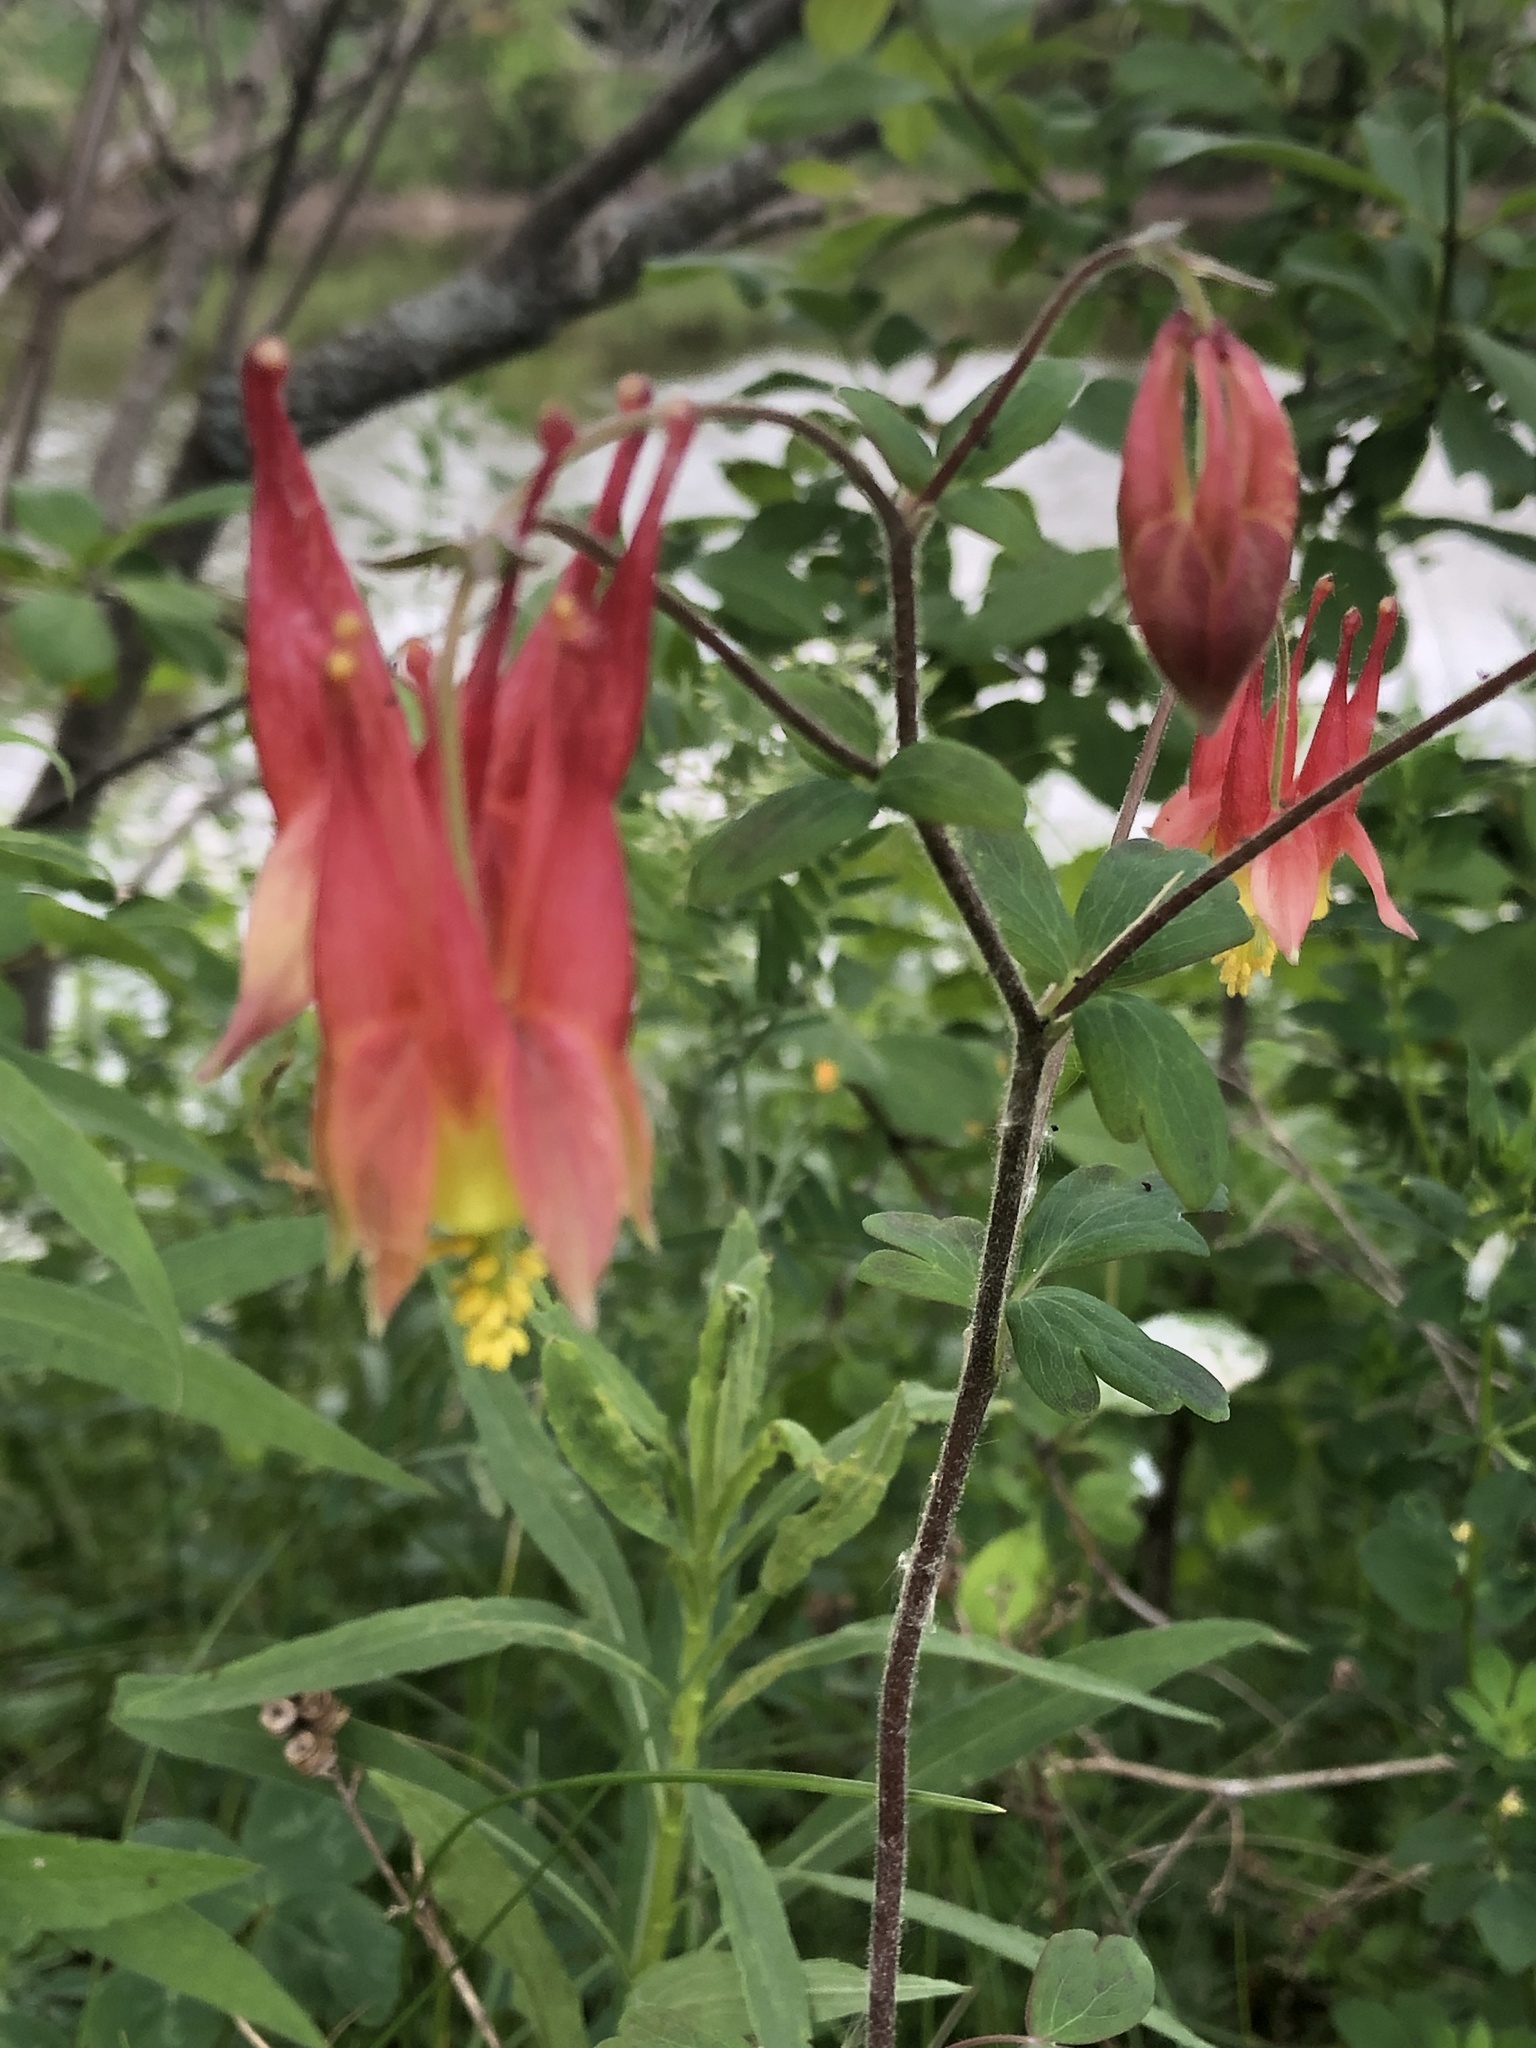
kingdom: Plantae
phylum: Tracheophyta
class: Magnoliopsida
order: Ranunculales
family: Ranunculaceae
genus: Aquilegia
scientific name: Aquilegia canadensis
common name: American columbine
